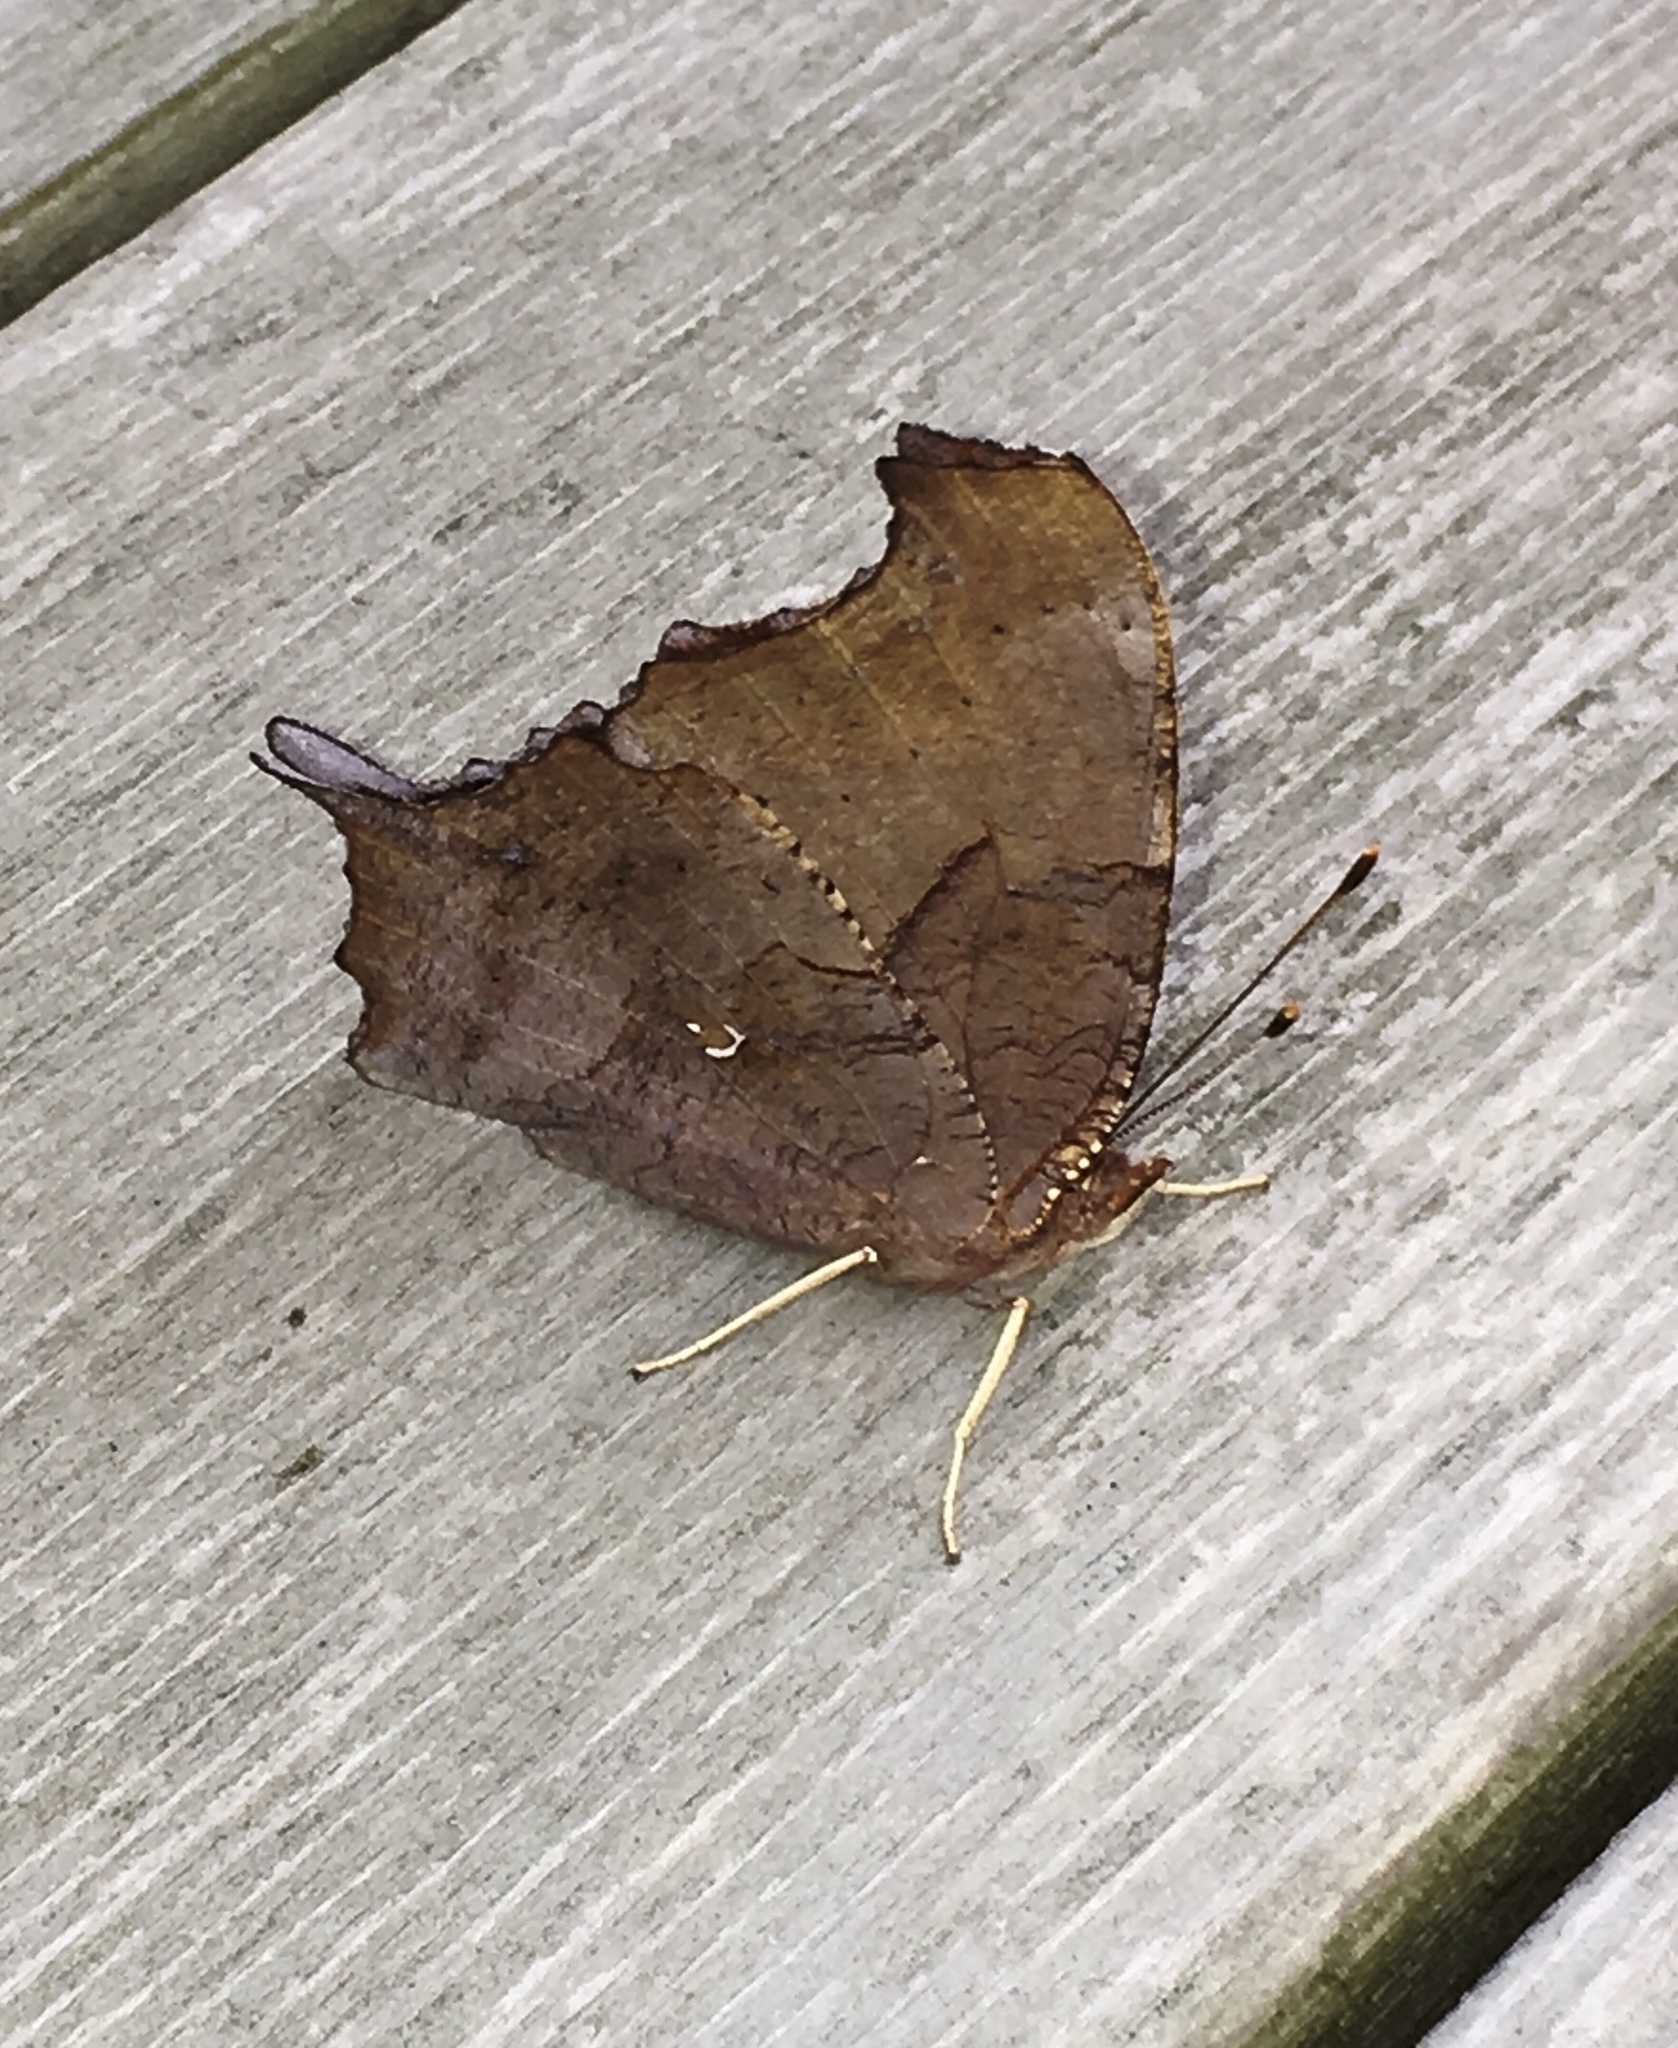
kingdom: Animalia
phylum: Arthropoda
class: Insecta
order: Lepidoptera
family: Nymphalidae
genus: Polygonia
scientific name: Polygonia interrogationis
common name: Question mark
